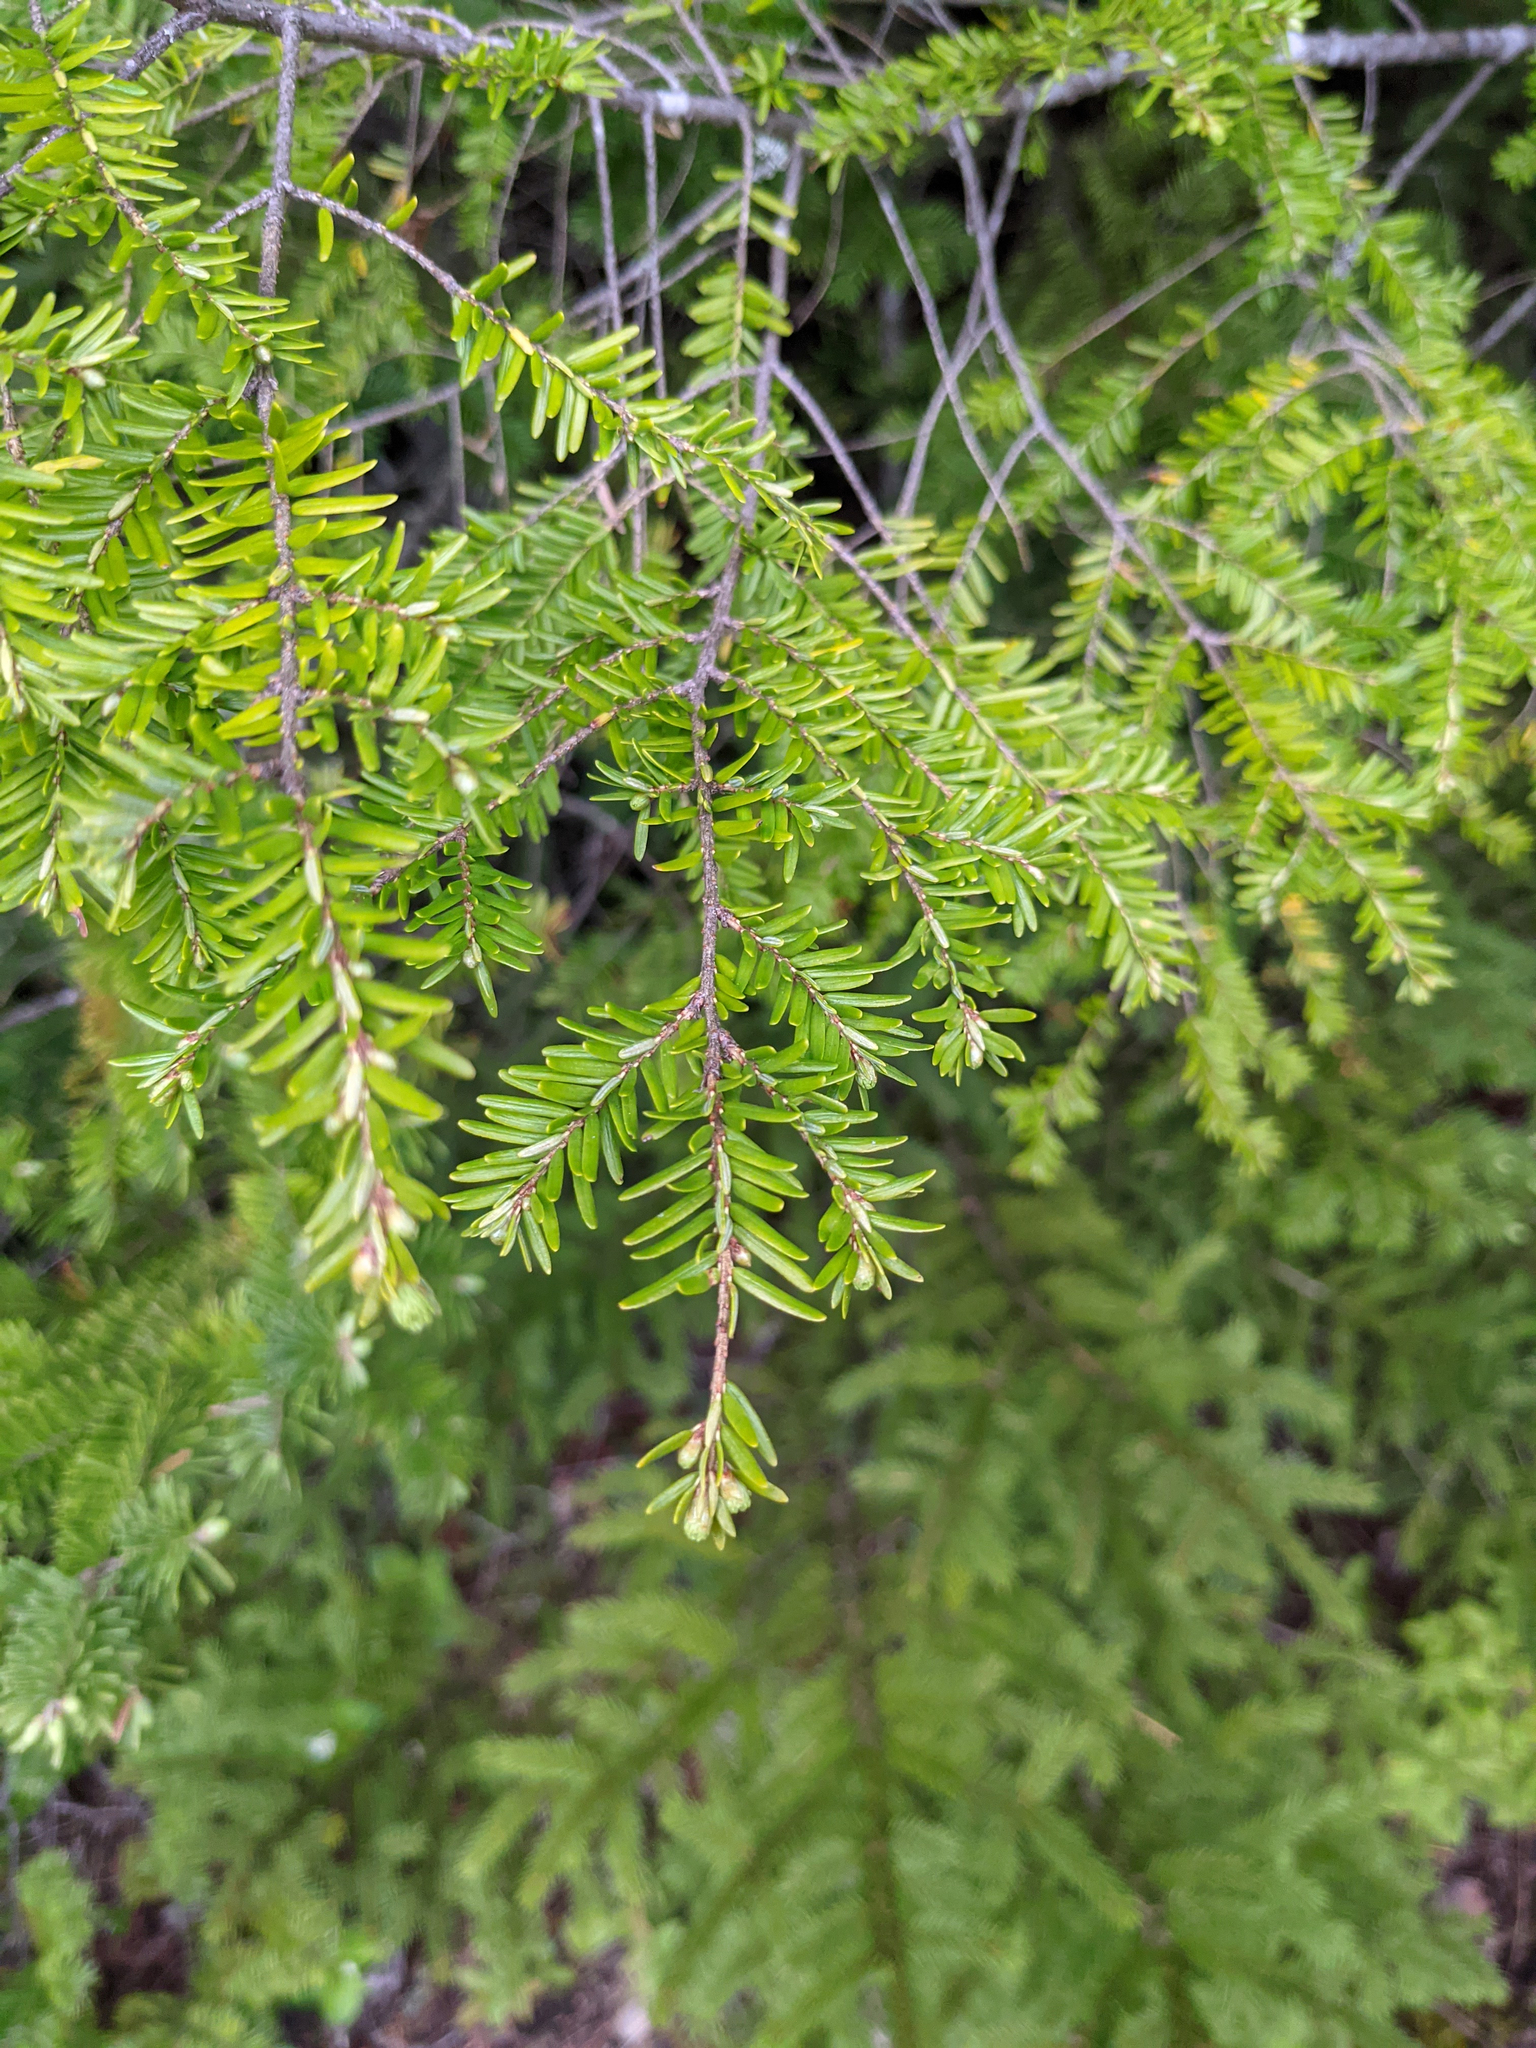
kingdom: Plantae
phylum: Tracheophyta
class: Pinopsida
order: Pinales
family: Pinaceae
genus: Tsuga
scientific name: Tsuga canadensis
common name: Eastern hemlock
